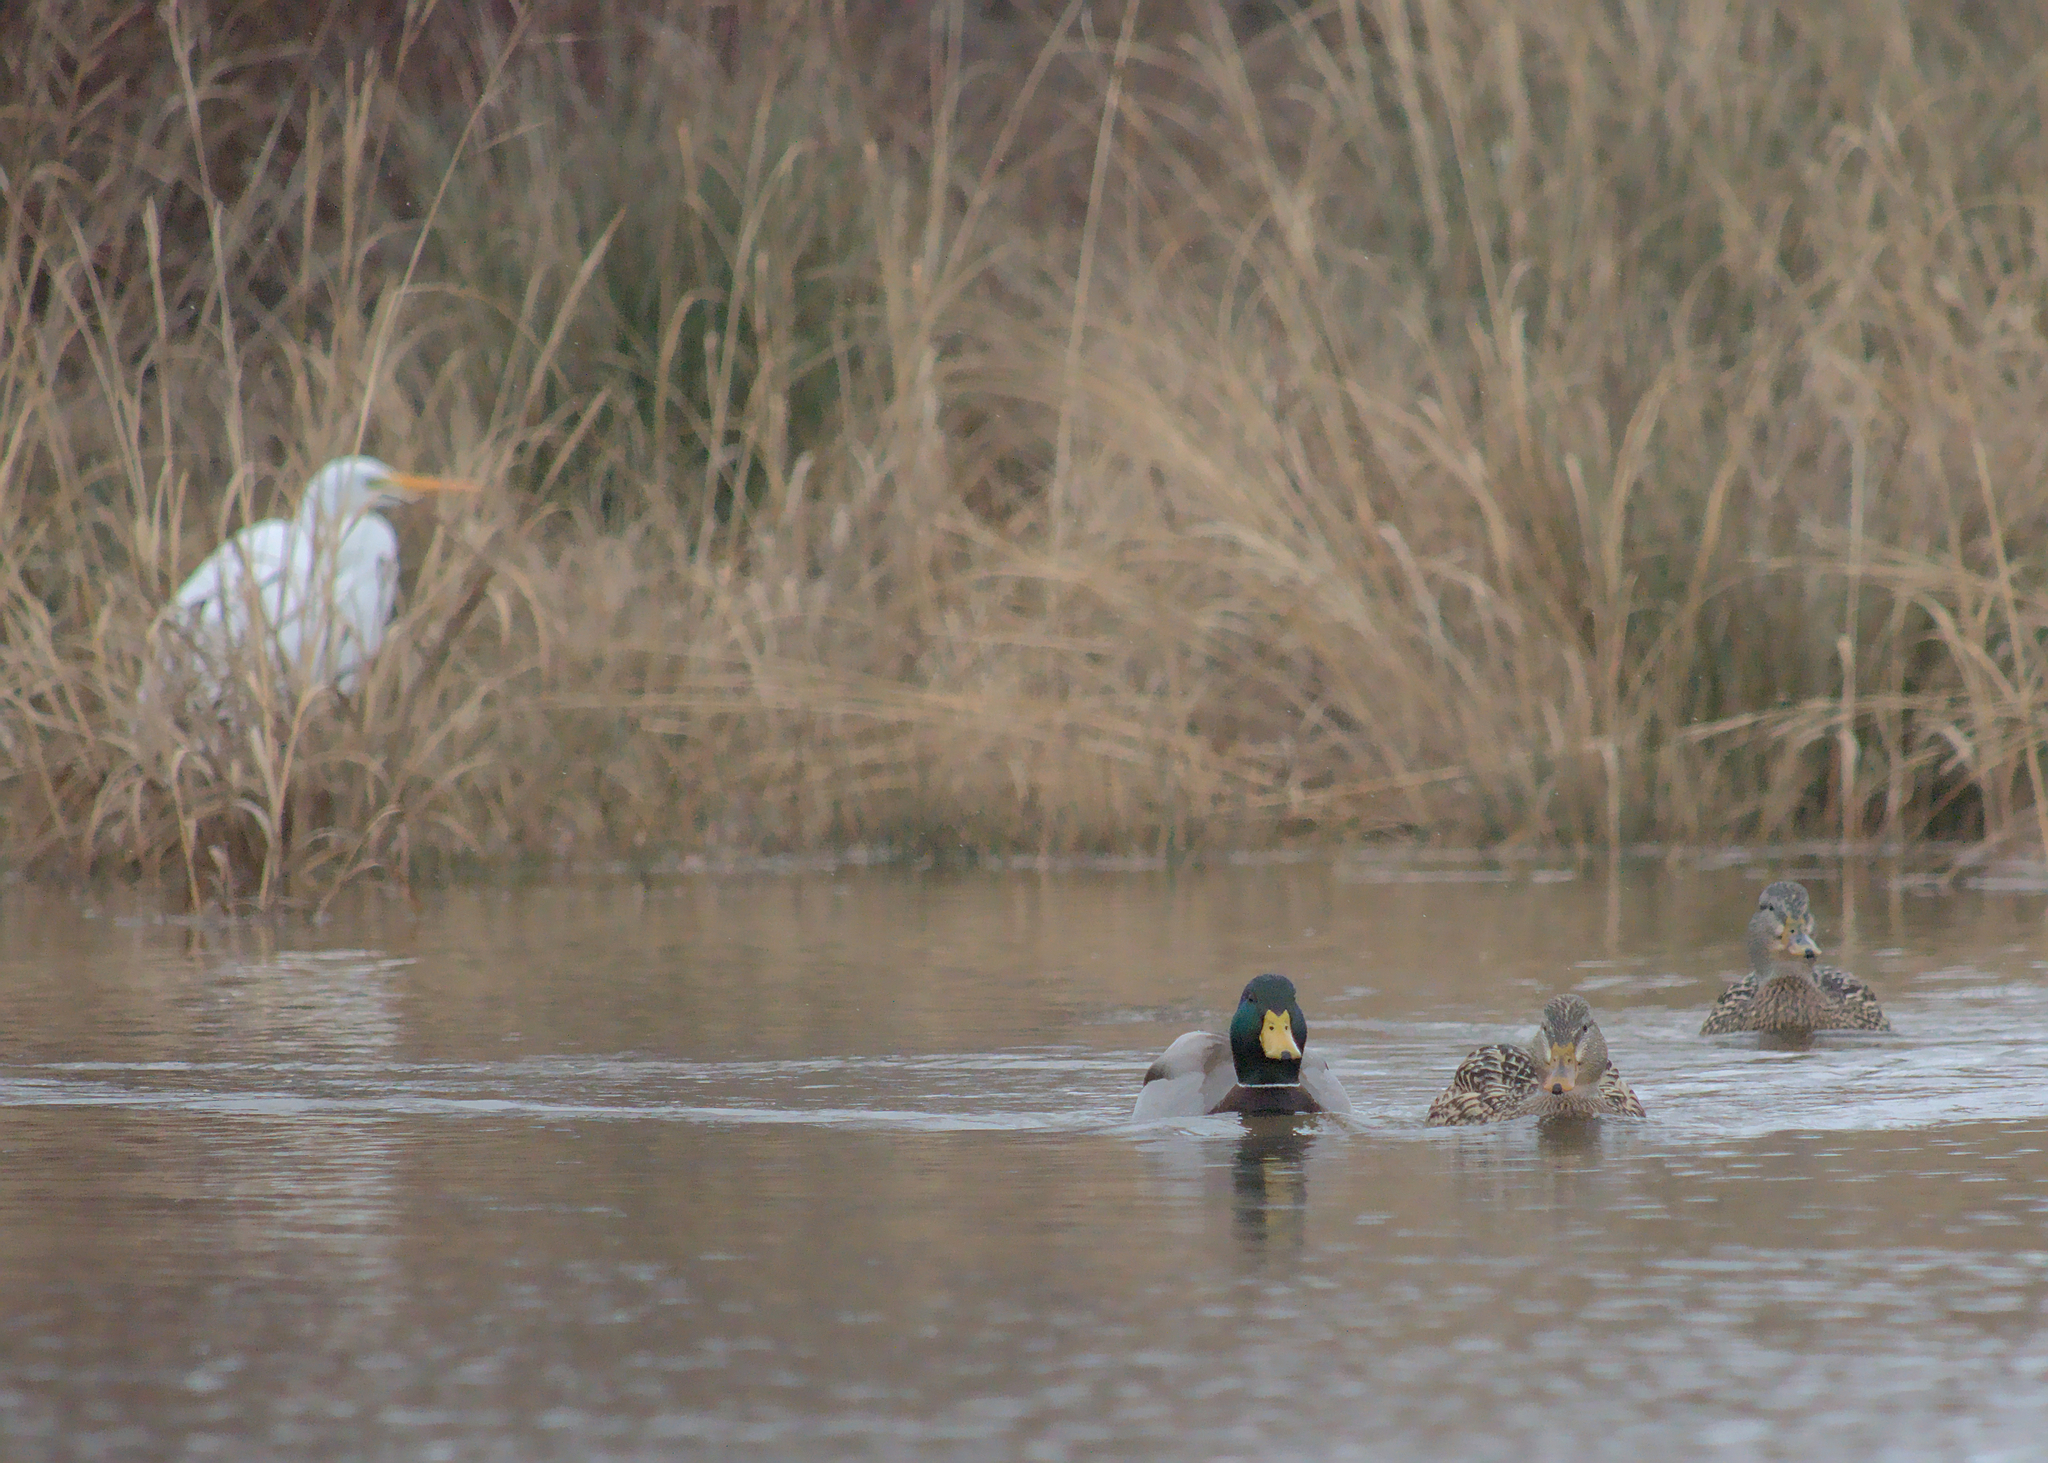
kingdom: Animalia
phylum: Chordata
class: Aves
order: Anseriformes
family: Anatidae
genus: Anas
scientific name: Anas platyrhynchos
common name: Mallard
